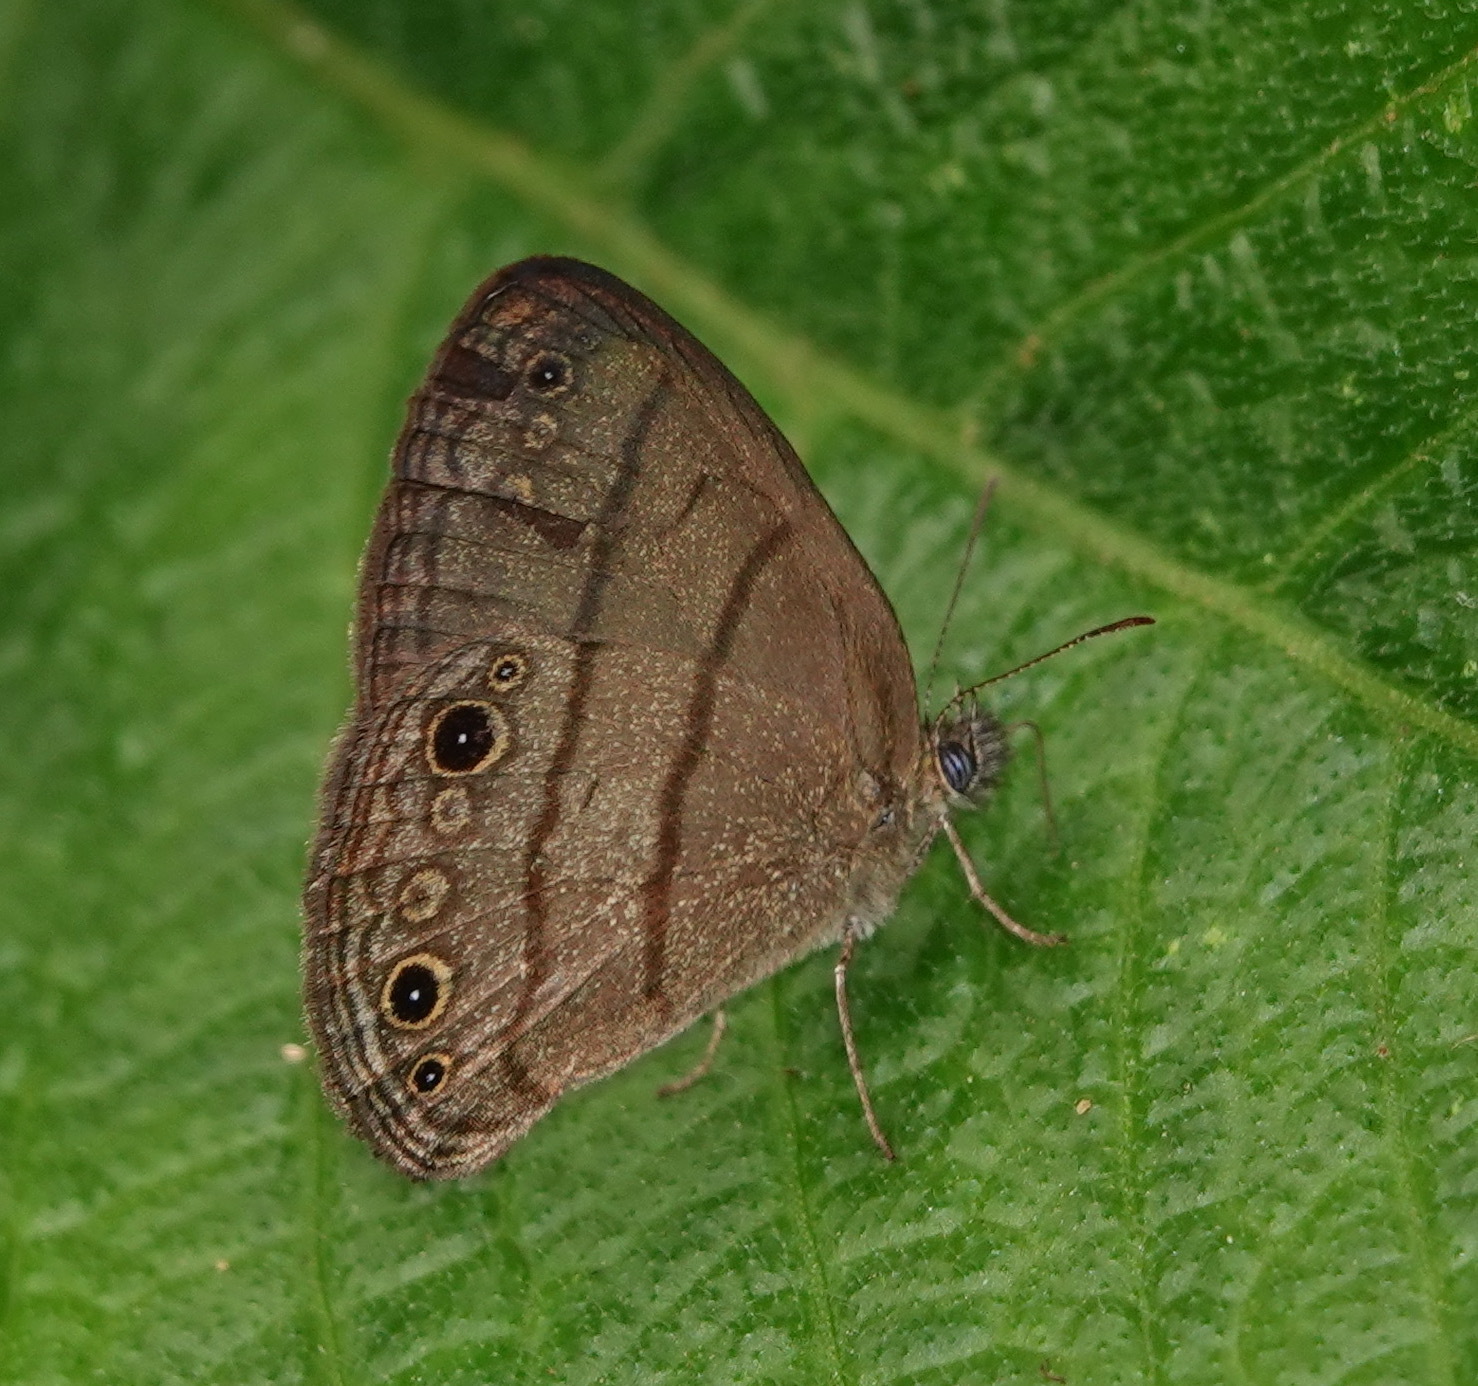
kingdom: Animalia
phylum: Arthropoda
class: Insecta
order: Lepidoptera
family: Nymphalidae
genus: Hermeuptychia
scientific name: Hermeuptychia hermes
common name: Hermes satyr
